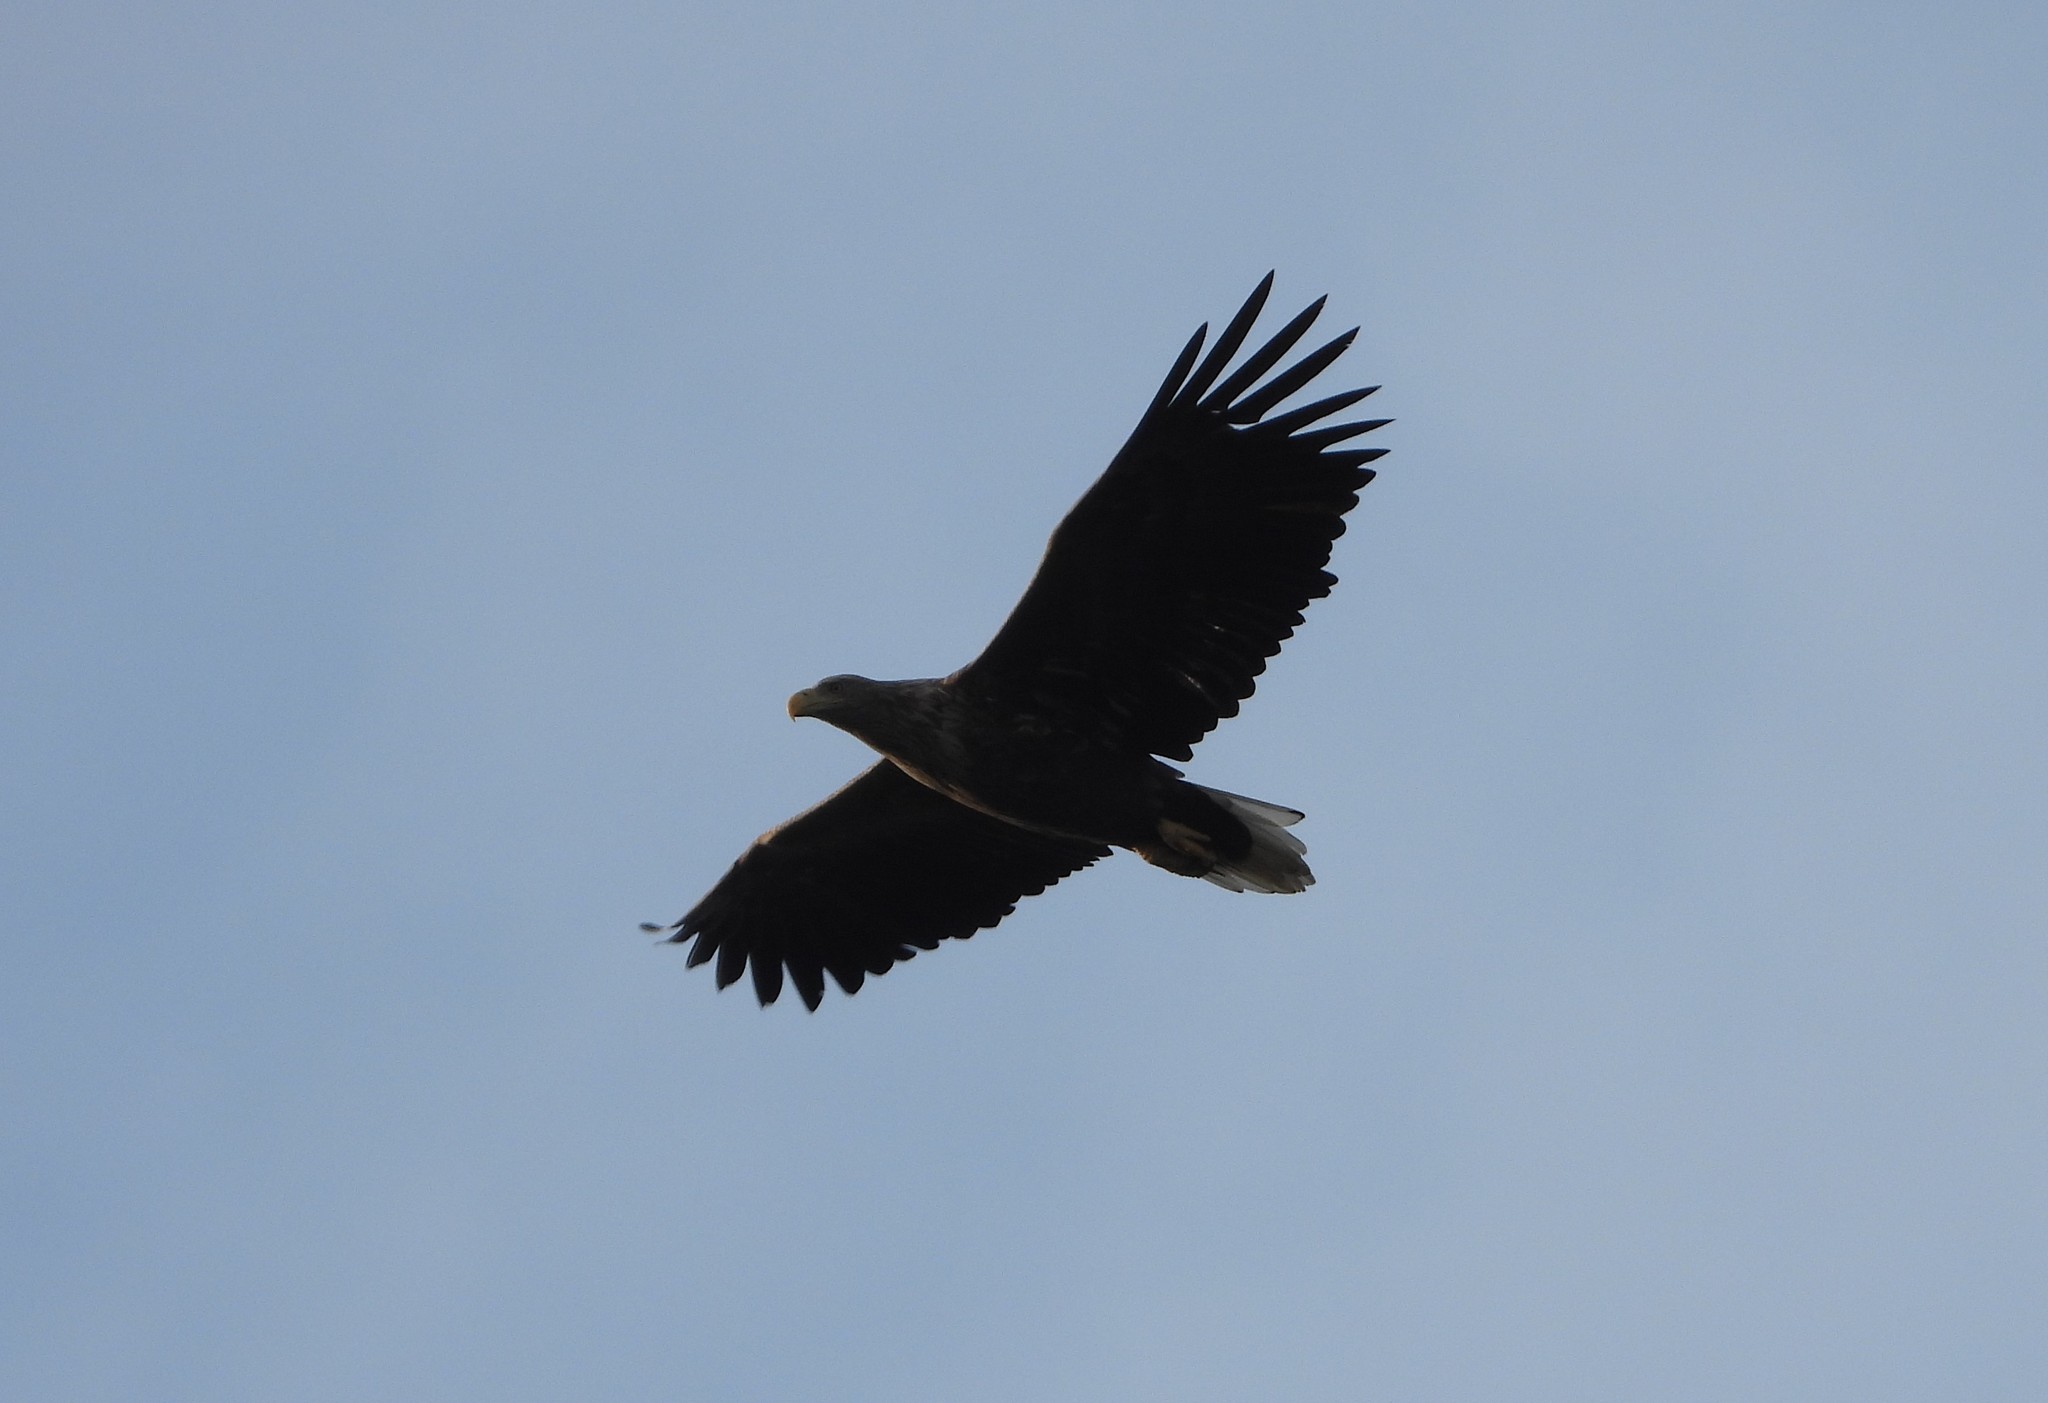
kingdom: Animalia
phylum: Chordata
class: Aves
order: Accipitriformes
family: Accipitridae
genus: Haliaeetus
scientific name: Haliaeetus albicilla
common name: White-tailed eagle
